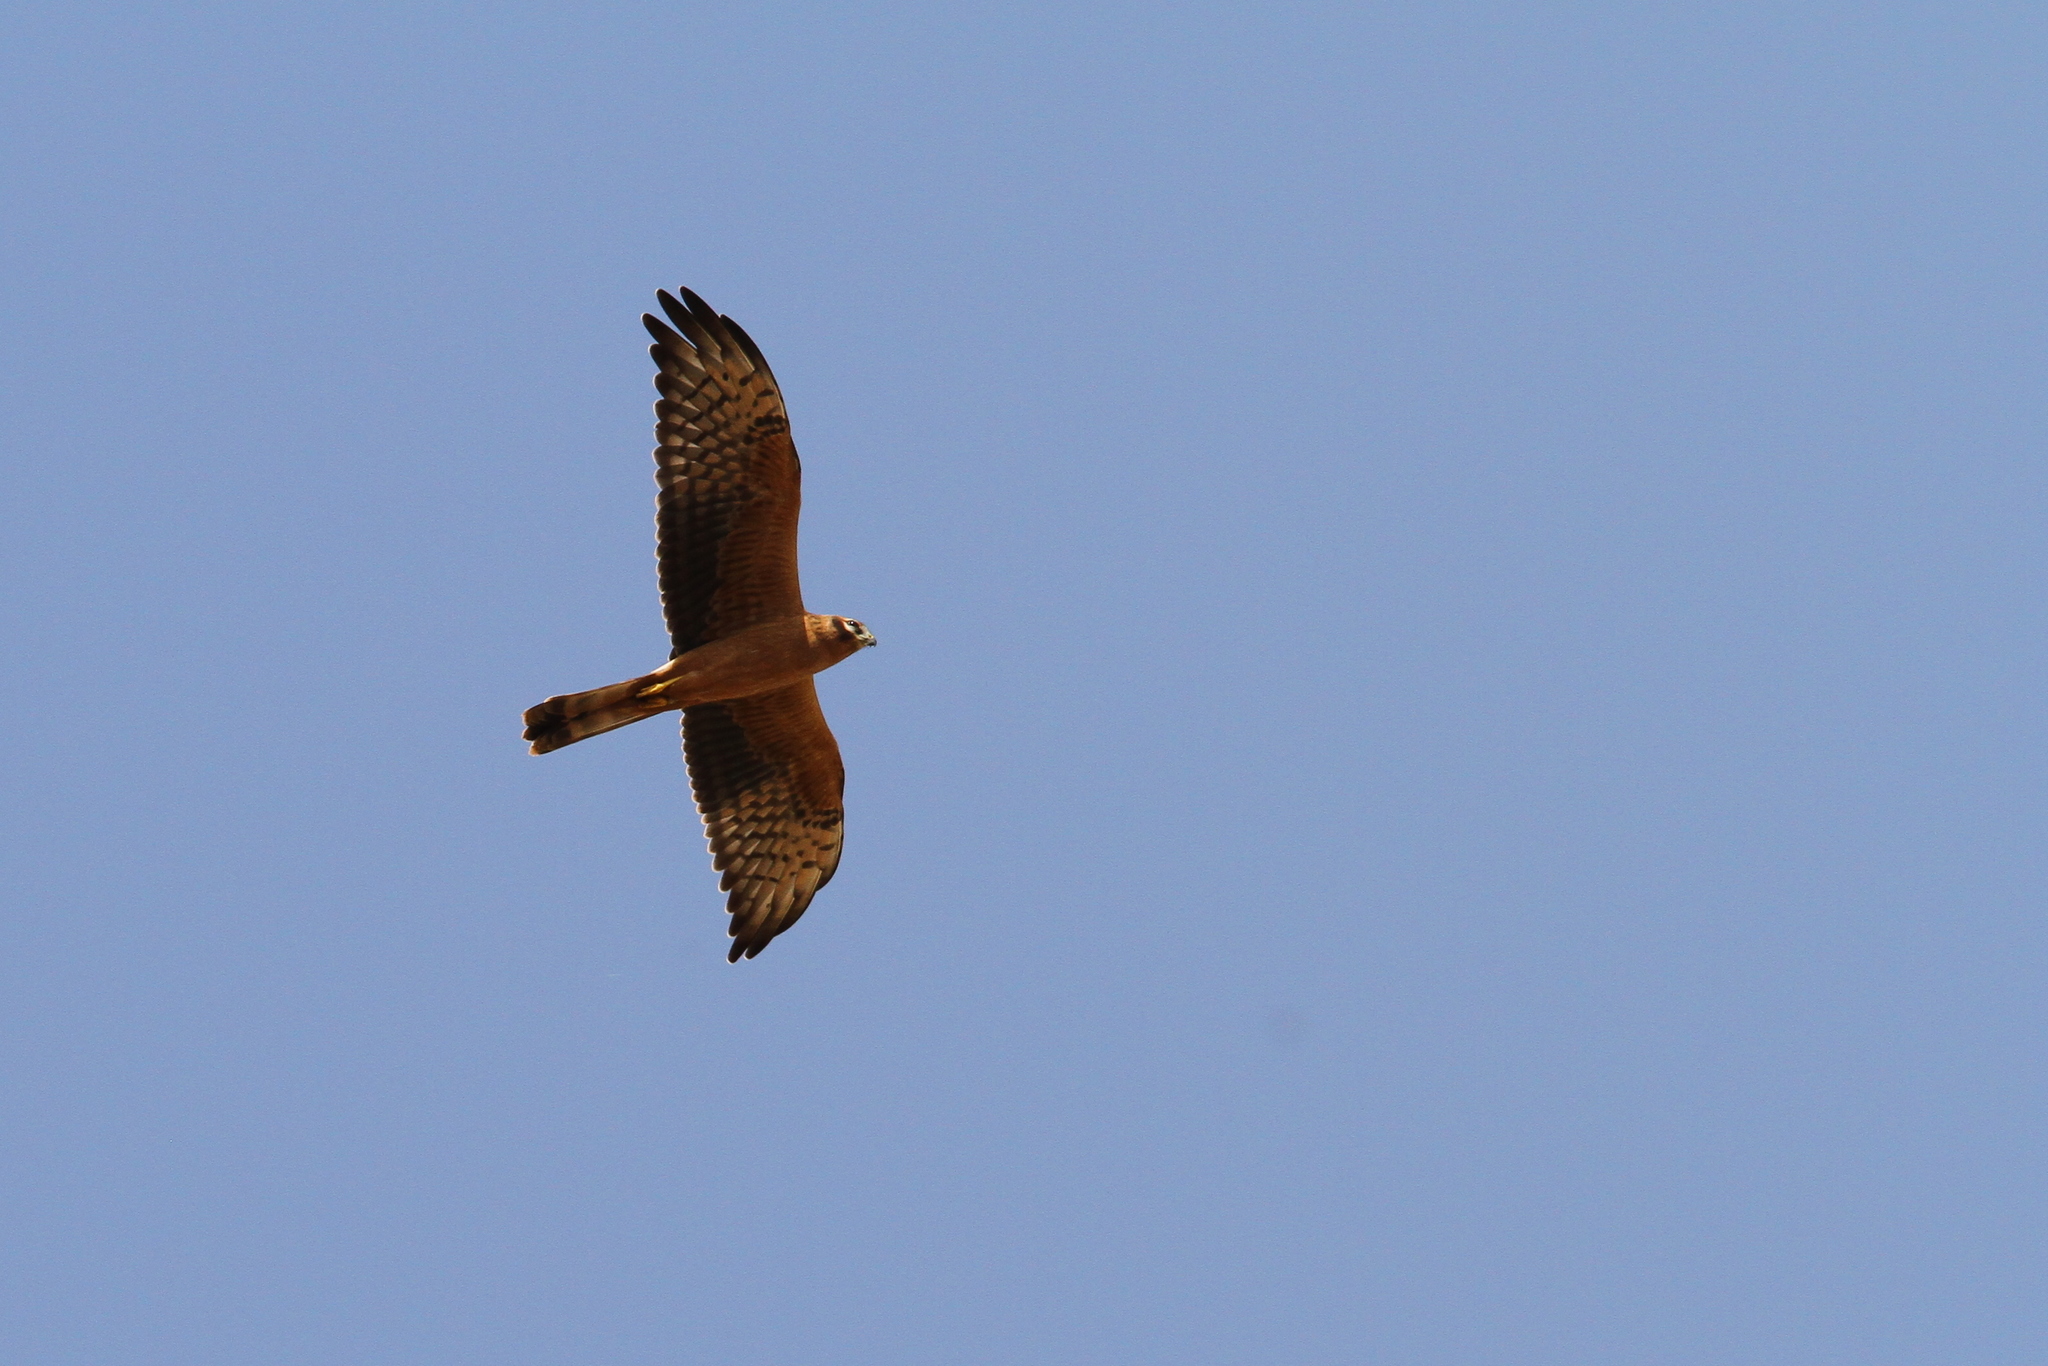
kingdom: Animalia
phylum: Chordata
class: Aves
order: Accipitriformes
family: Accipitridae
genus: Circus
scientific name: Circus pygargus
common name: Montagu's harrier
